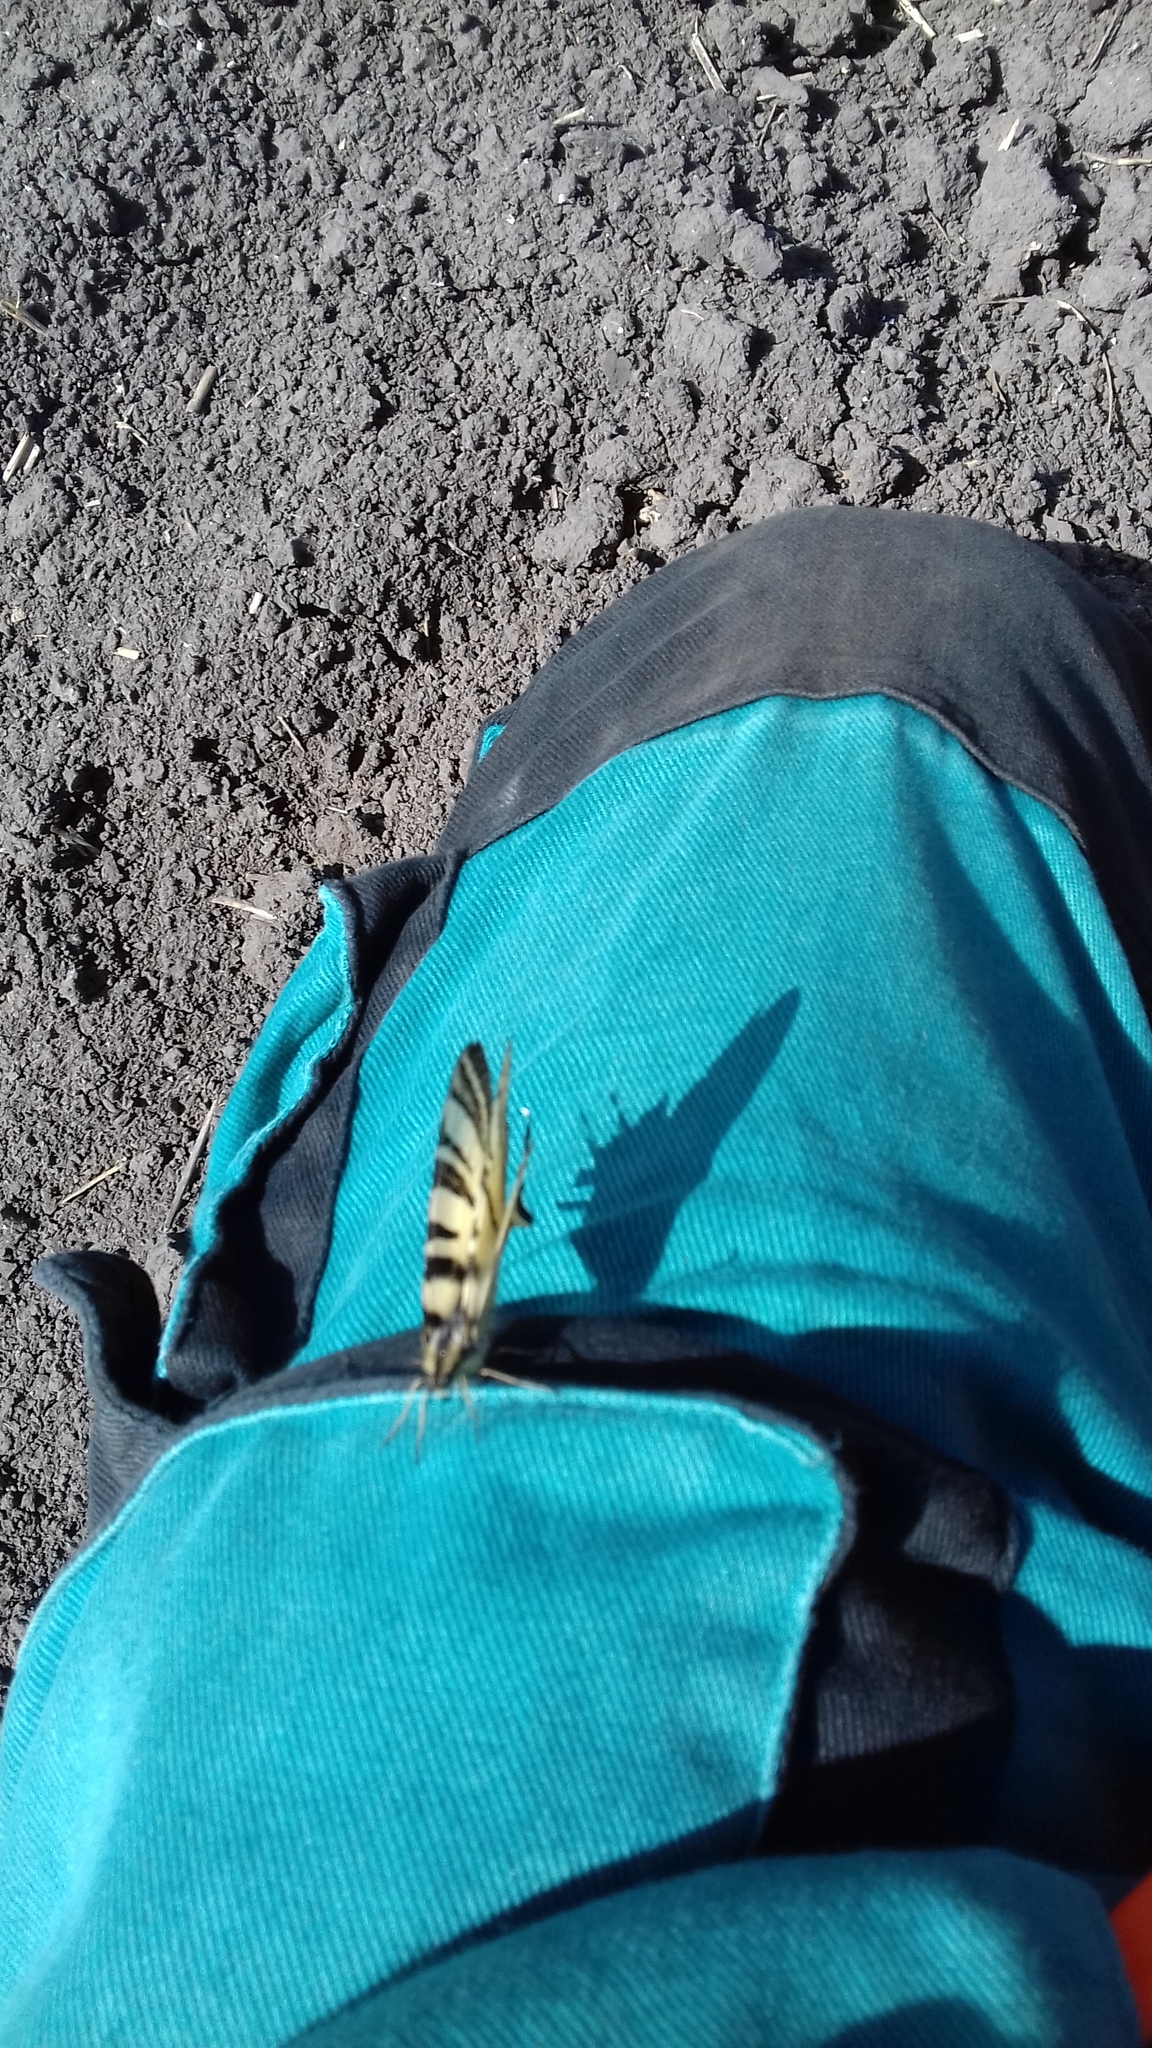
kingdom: Animalia
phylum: Arthropoda
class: Insecta
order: Lepidoptera
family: Papilionidae
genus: Iphiclides
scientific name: Iphiclides podalirius
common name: Scarce swallowtail
